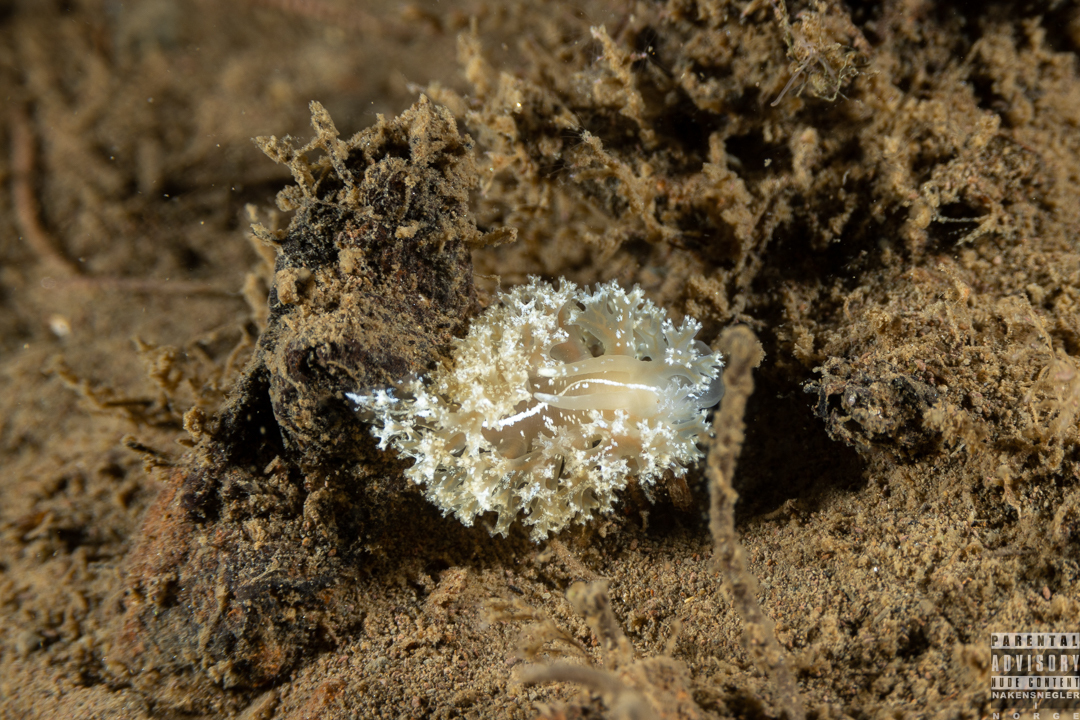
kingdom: Animalia
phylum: Mollusca
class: Gastropoda
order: Nudibranchia
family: Heroidae
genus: Hero
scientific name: Hero formosa
